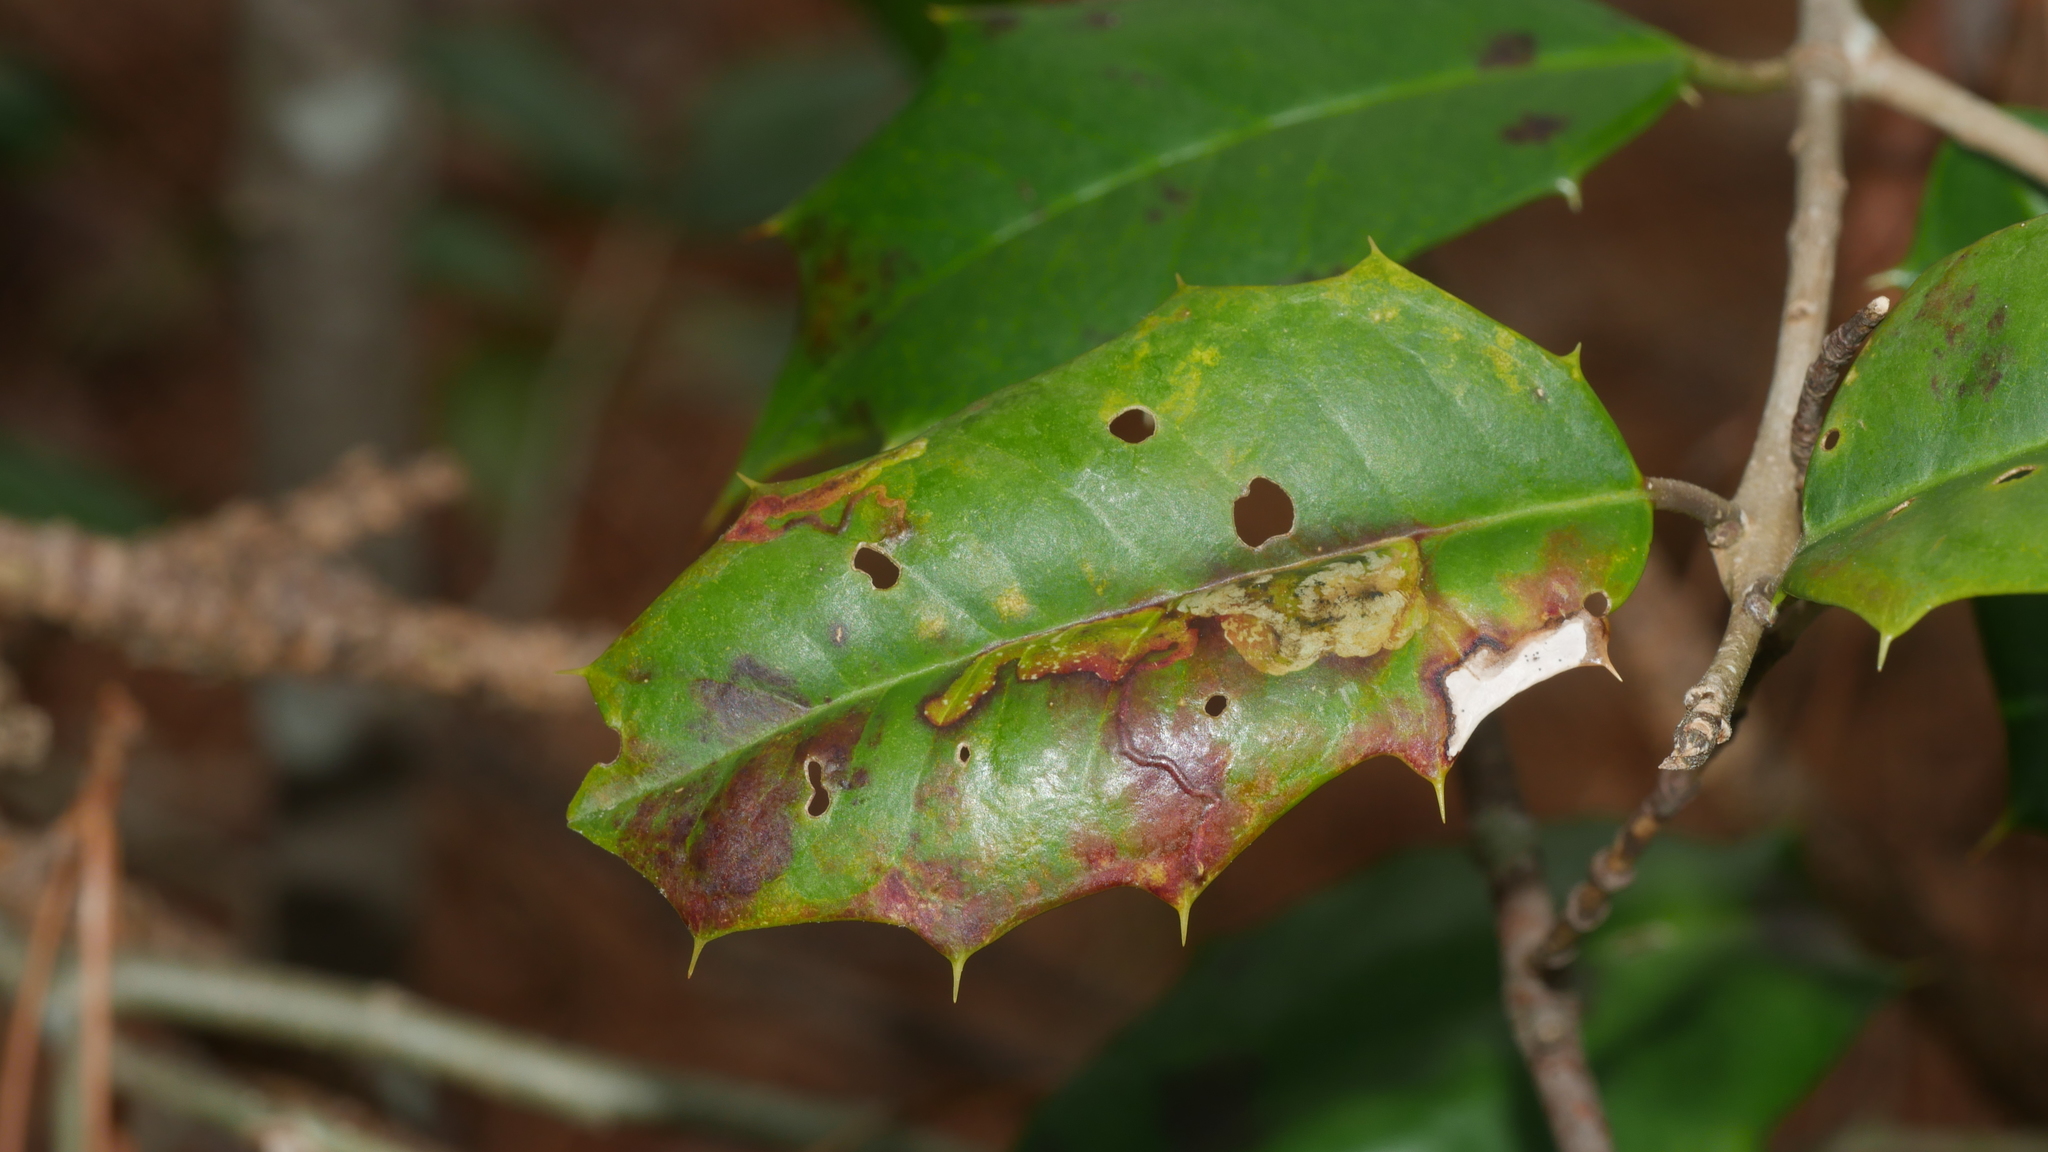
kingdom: Animalia
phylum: Arthropoda
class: Insecta
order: Diptera
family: Agromyzidae
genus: Phytomyza
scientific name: Phytomyza ilicicola
